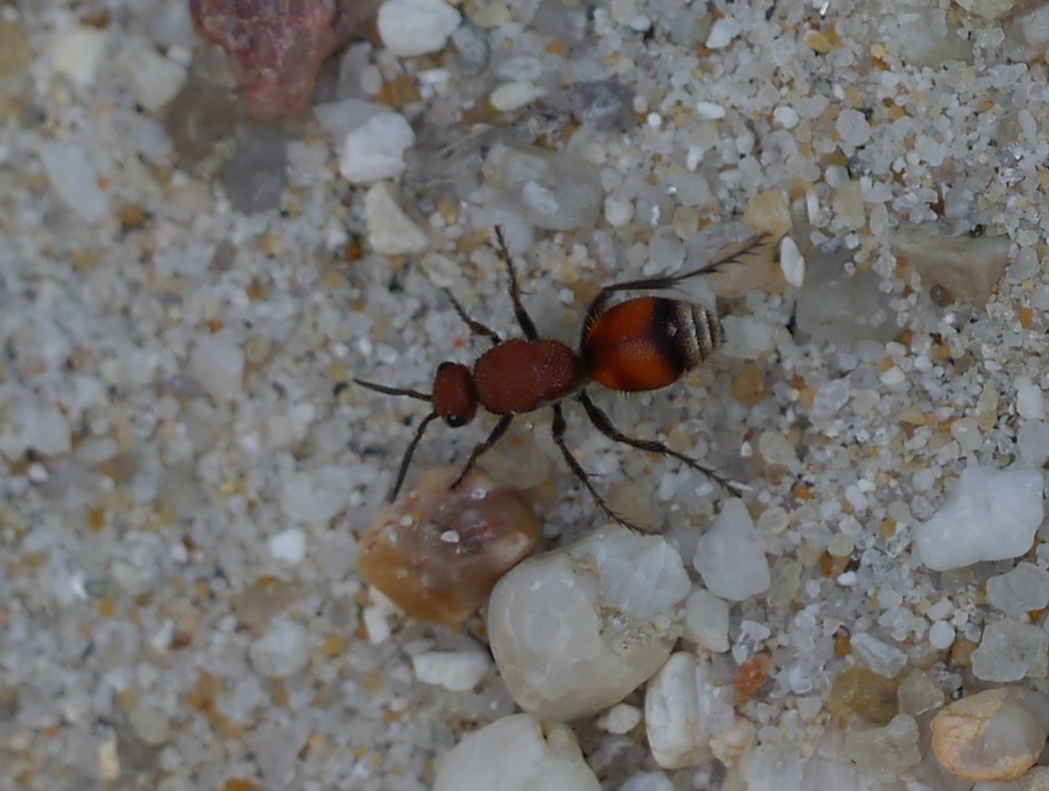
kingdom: Animalia
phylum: Arthropoda
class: Insecta
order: Hymenoptera
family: Mutillidae
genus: Dasymutilla
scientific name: Dasymutilla
